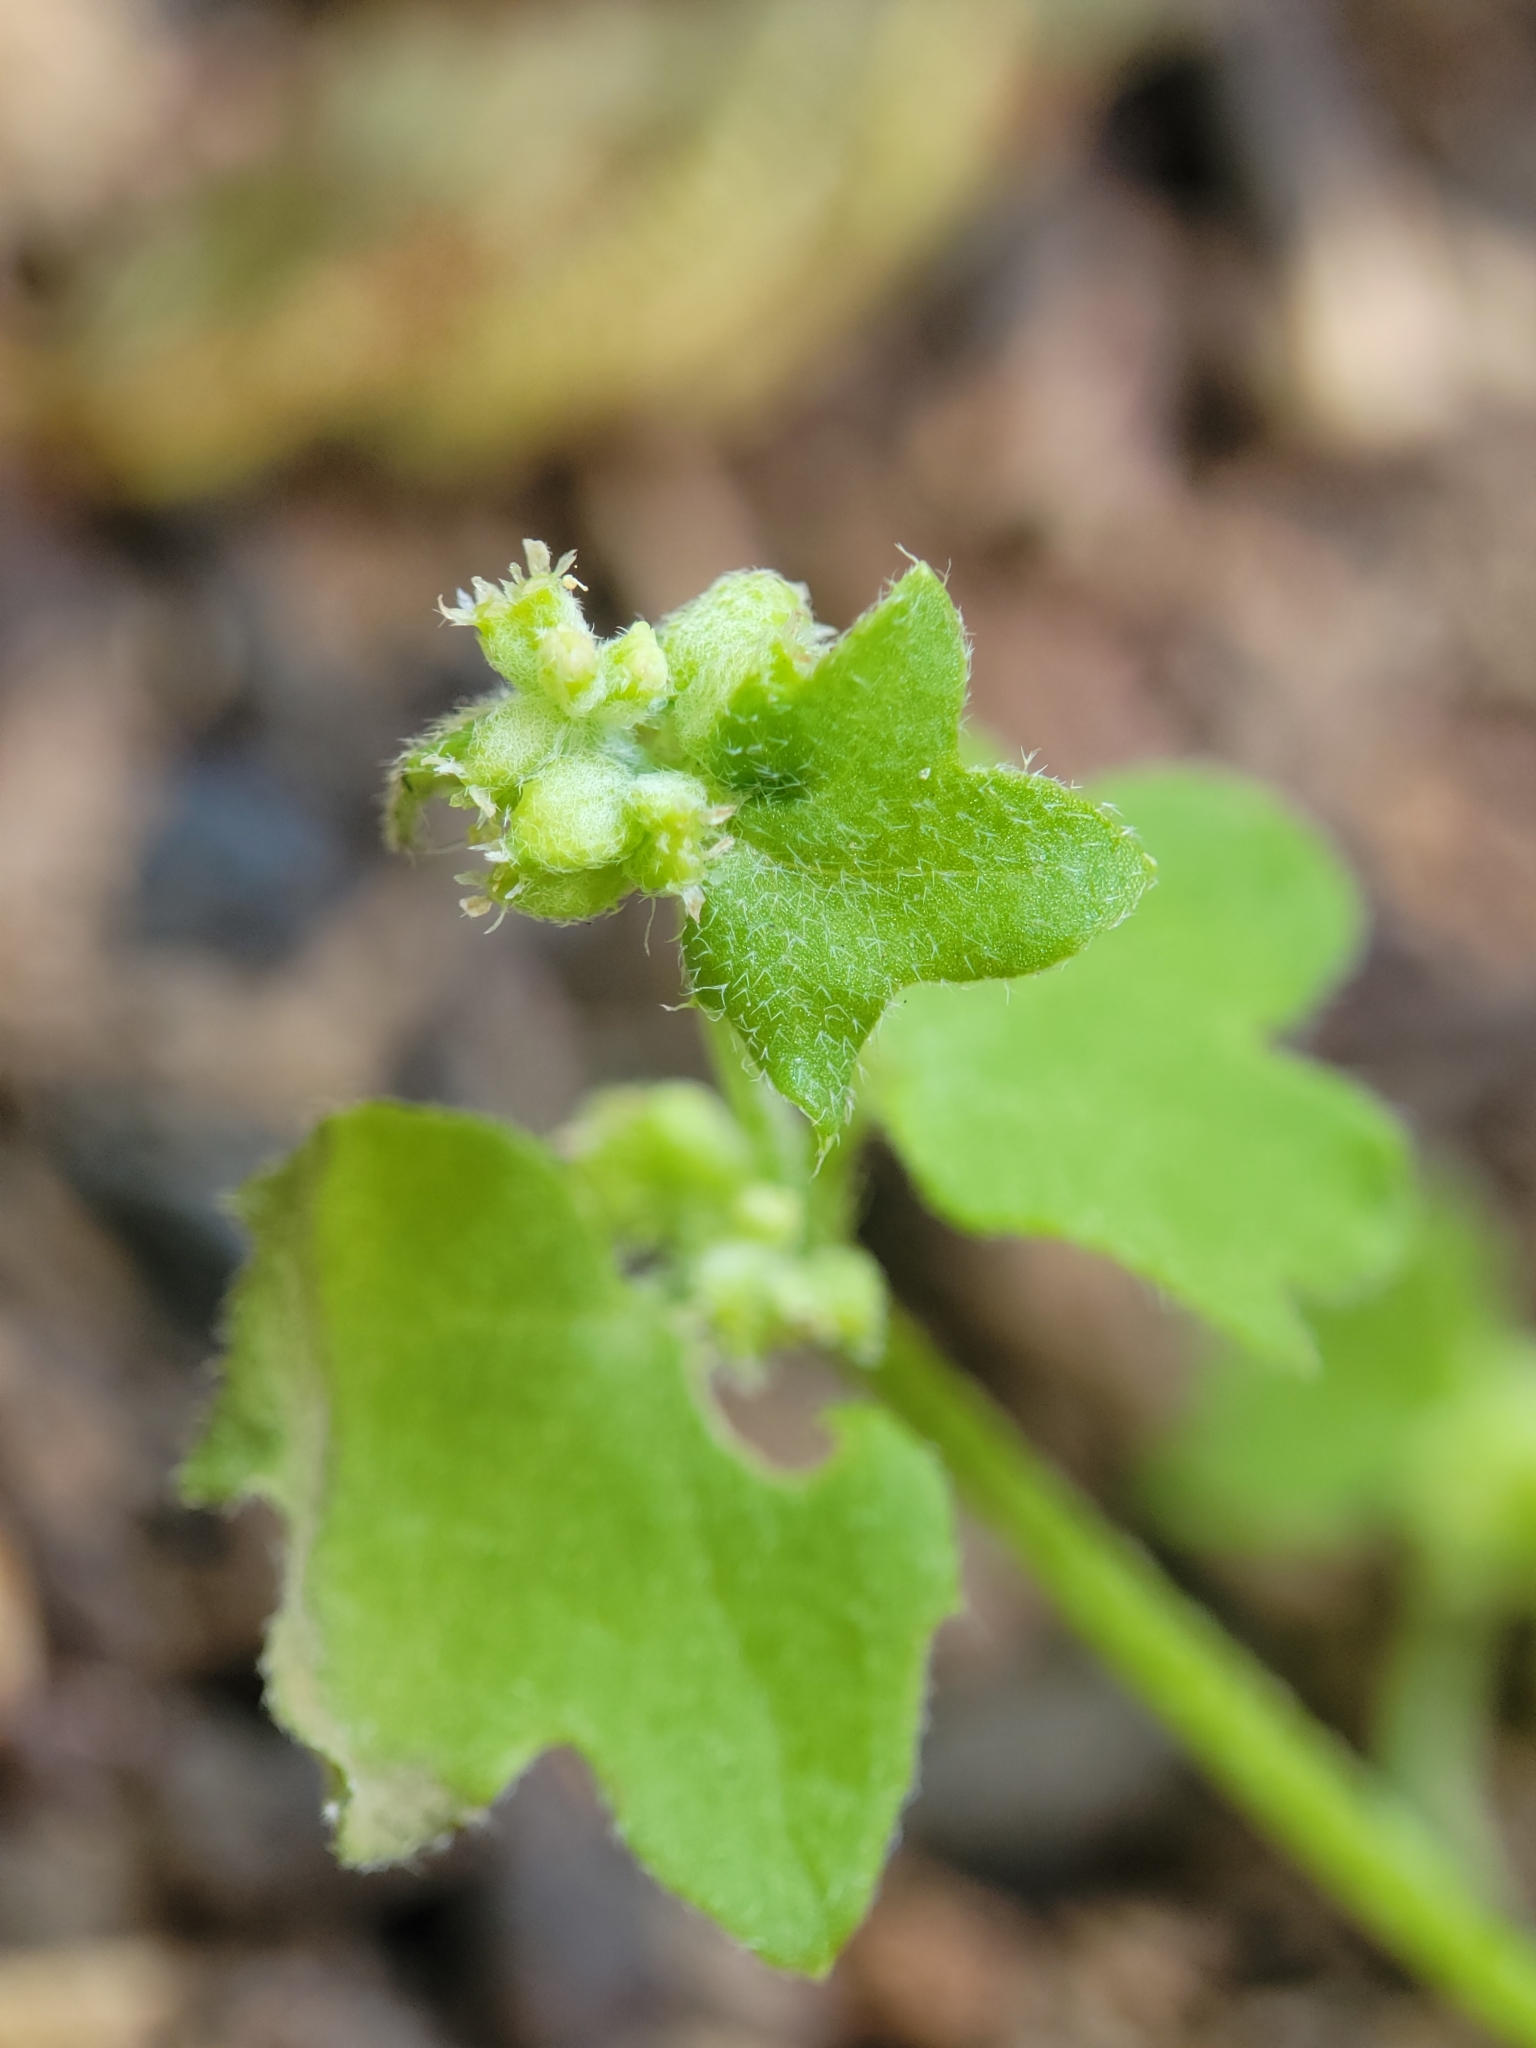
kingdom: Plantae
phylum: Tracheophyta
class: Magnoliopsida
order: Apiales
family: Apiaceae
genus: Bowlesia
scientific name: Bowlesia incana
